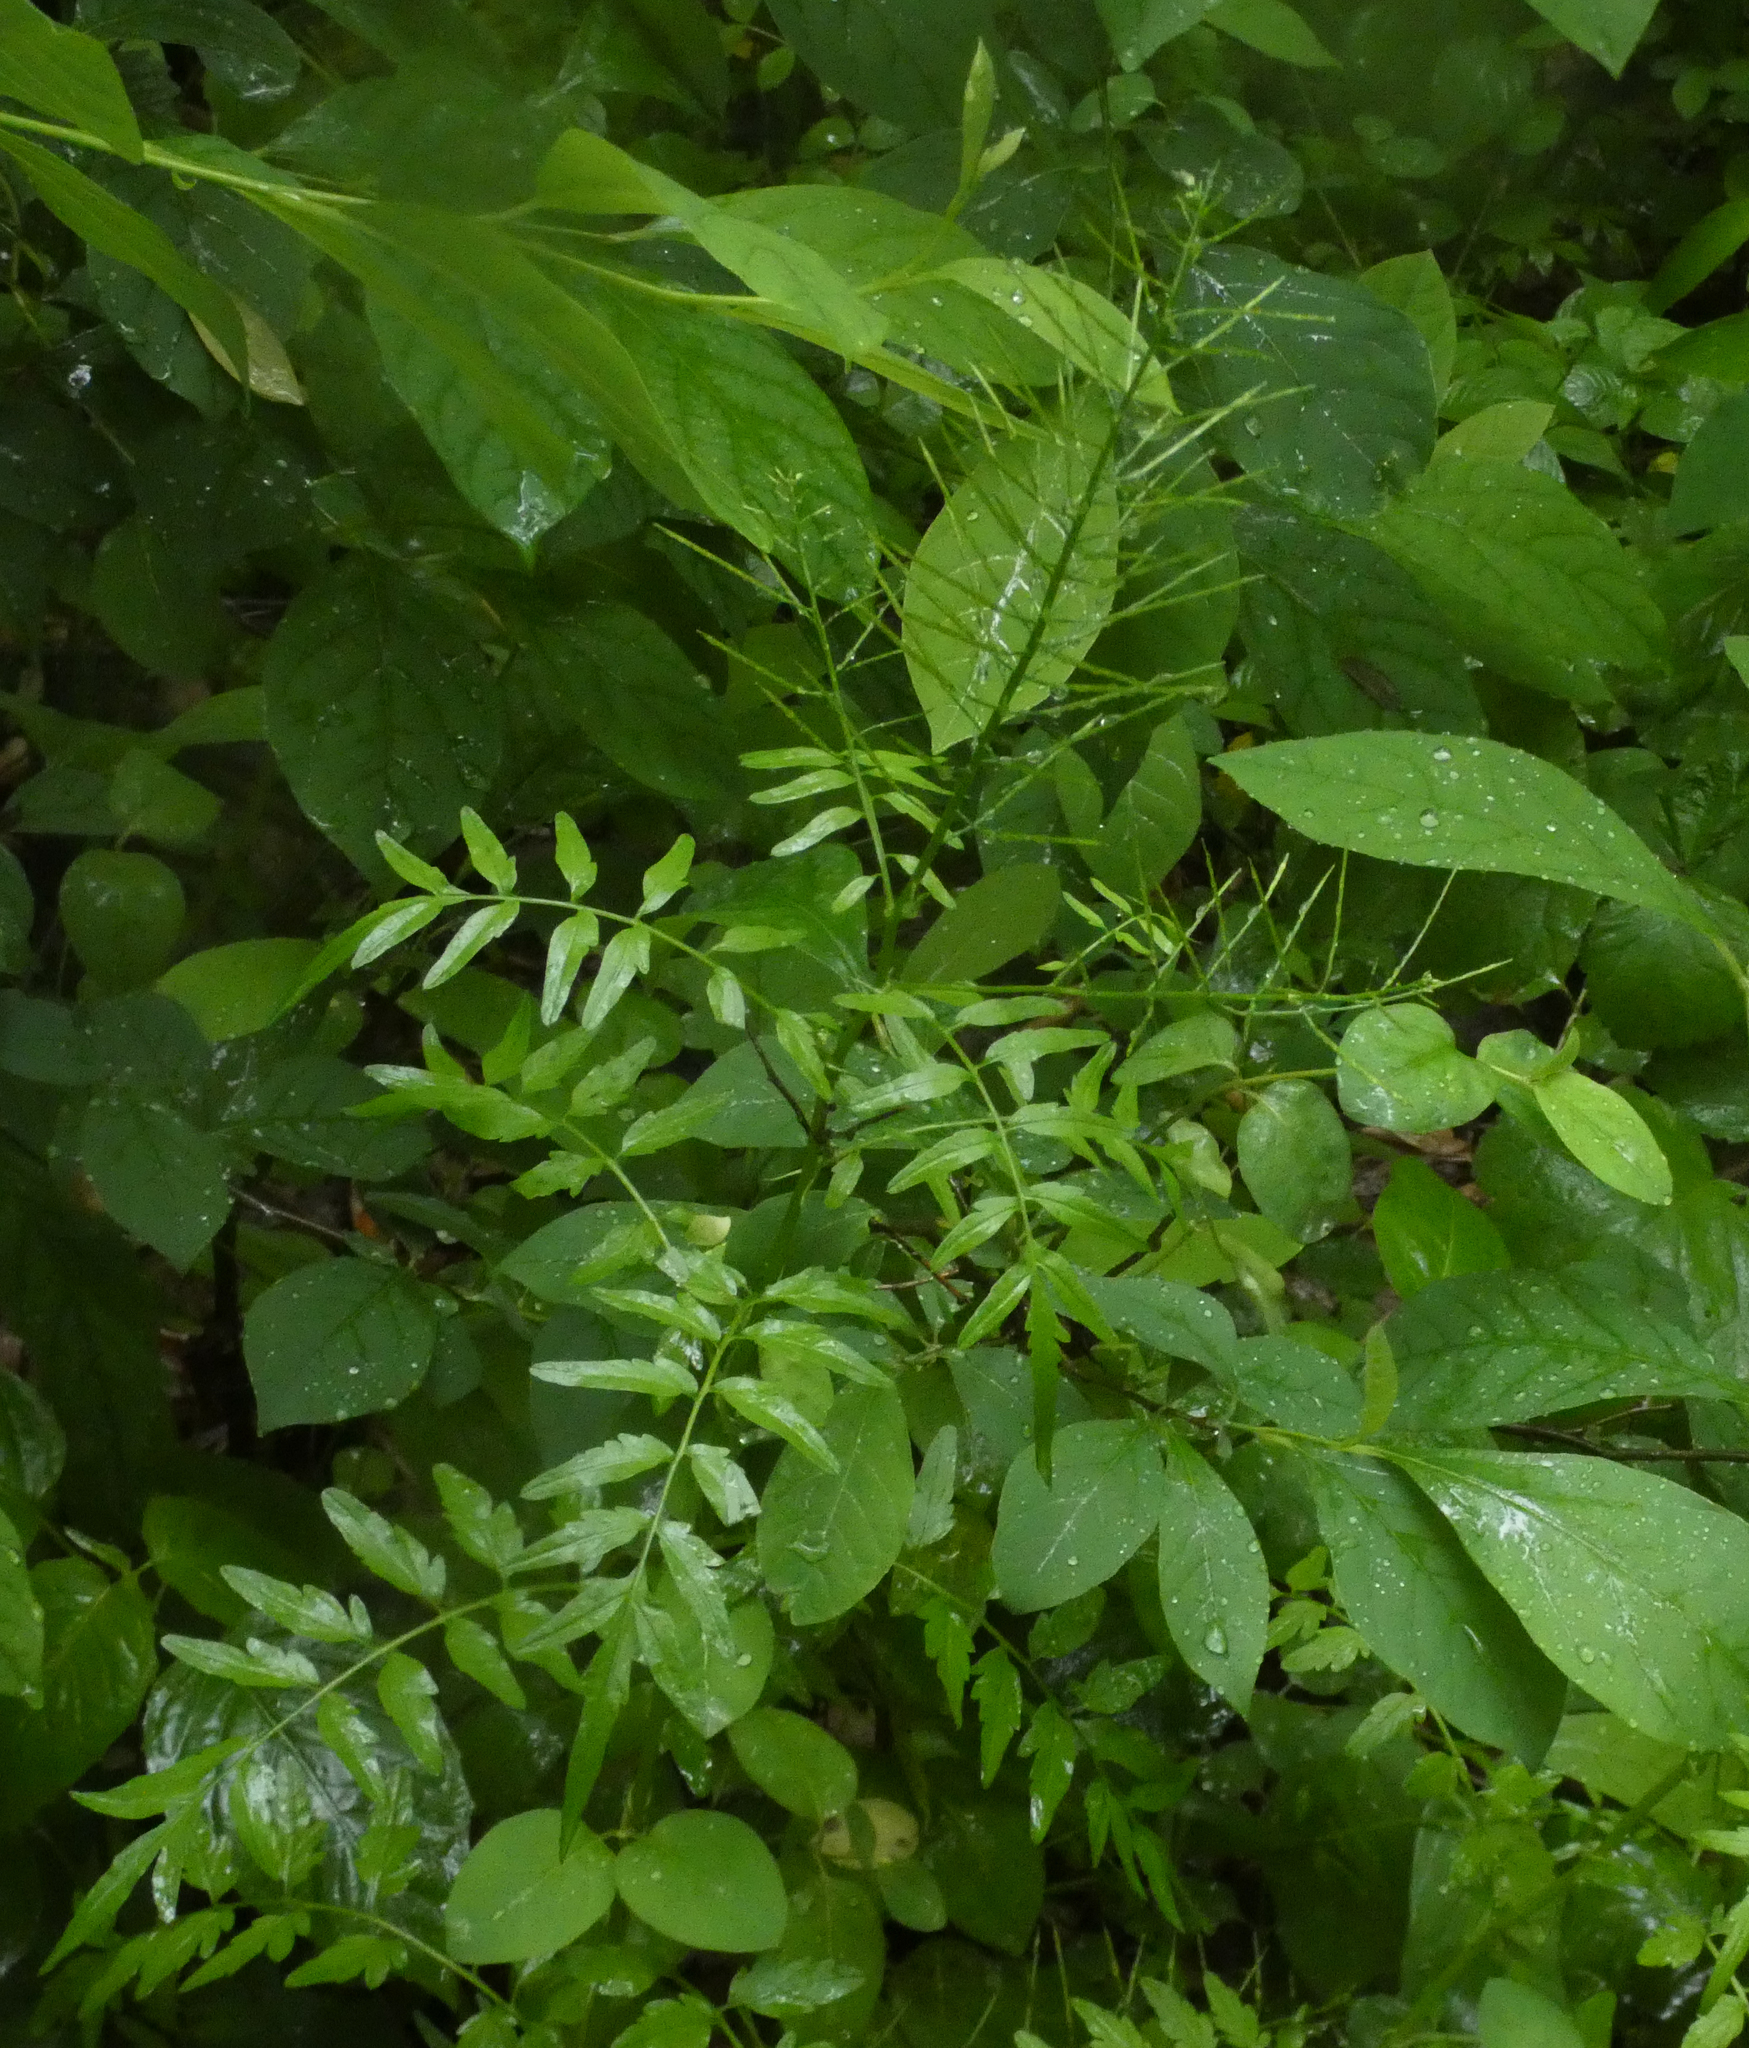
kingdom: Plantae
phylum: Tracheophyta
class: Magnoliopsida
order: Brassicales
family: Brassicaceae
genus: Cardamine
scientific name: Cardamine impatiens
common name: Narrow-leaved bitter-cress
